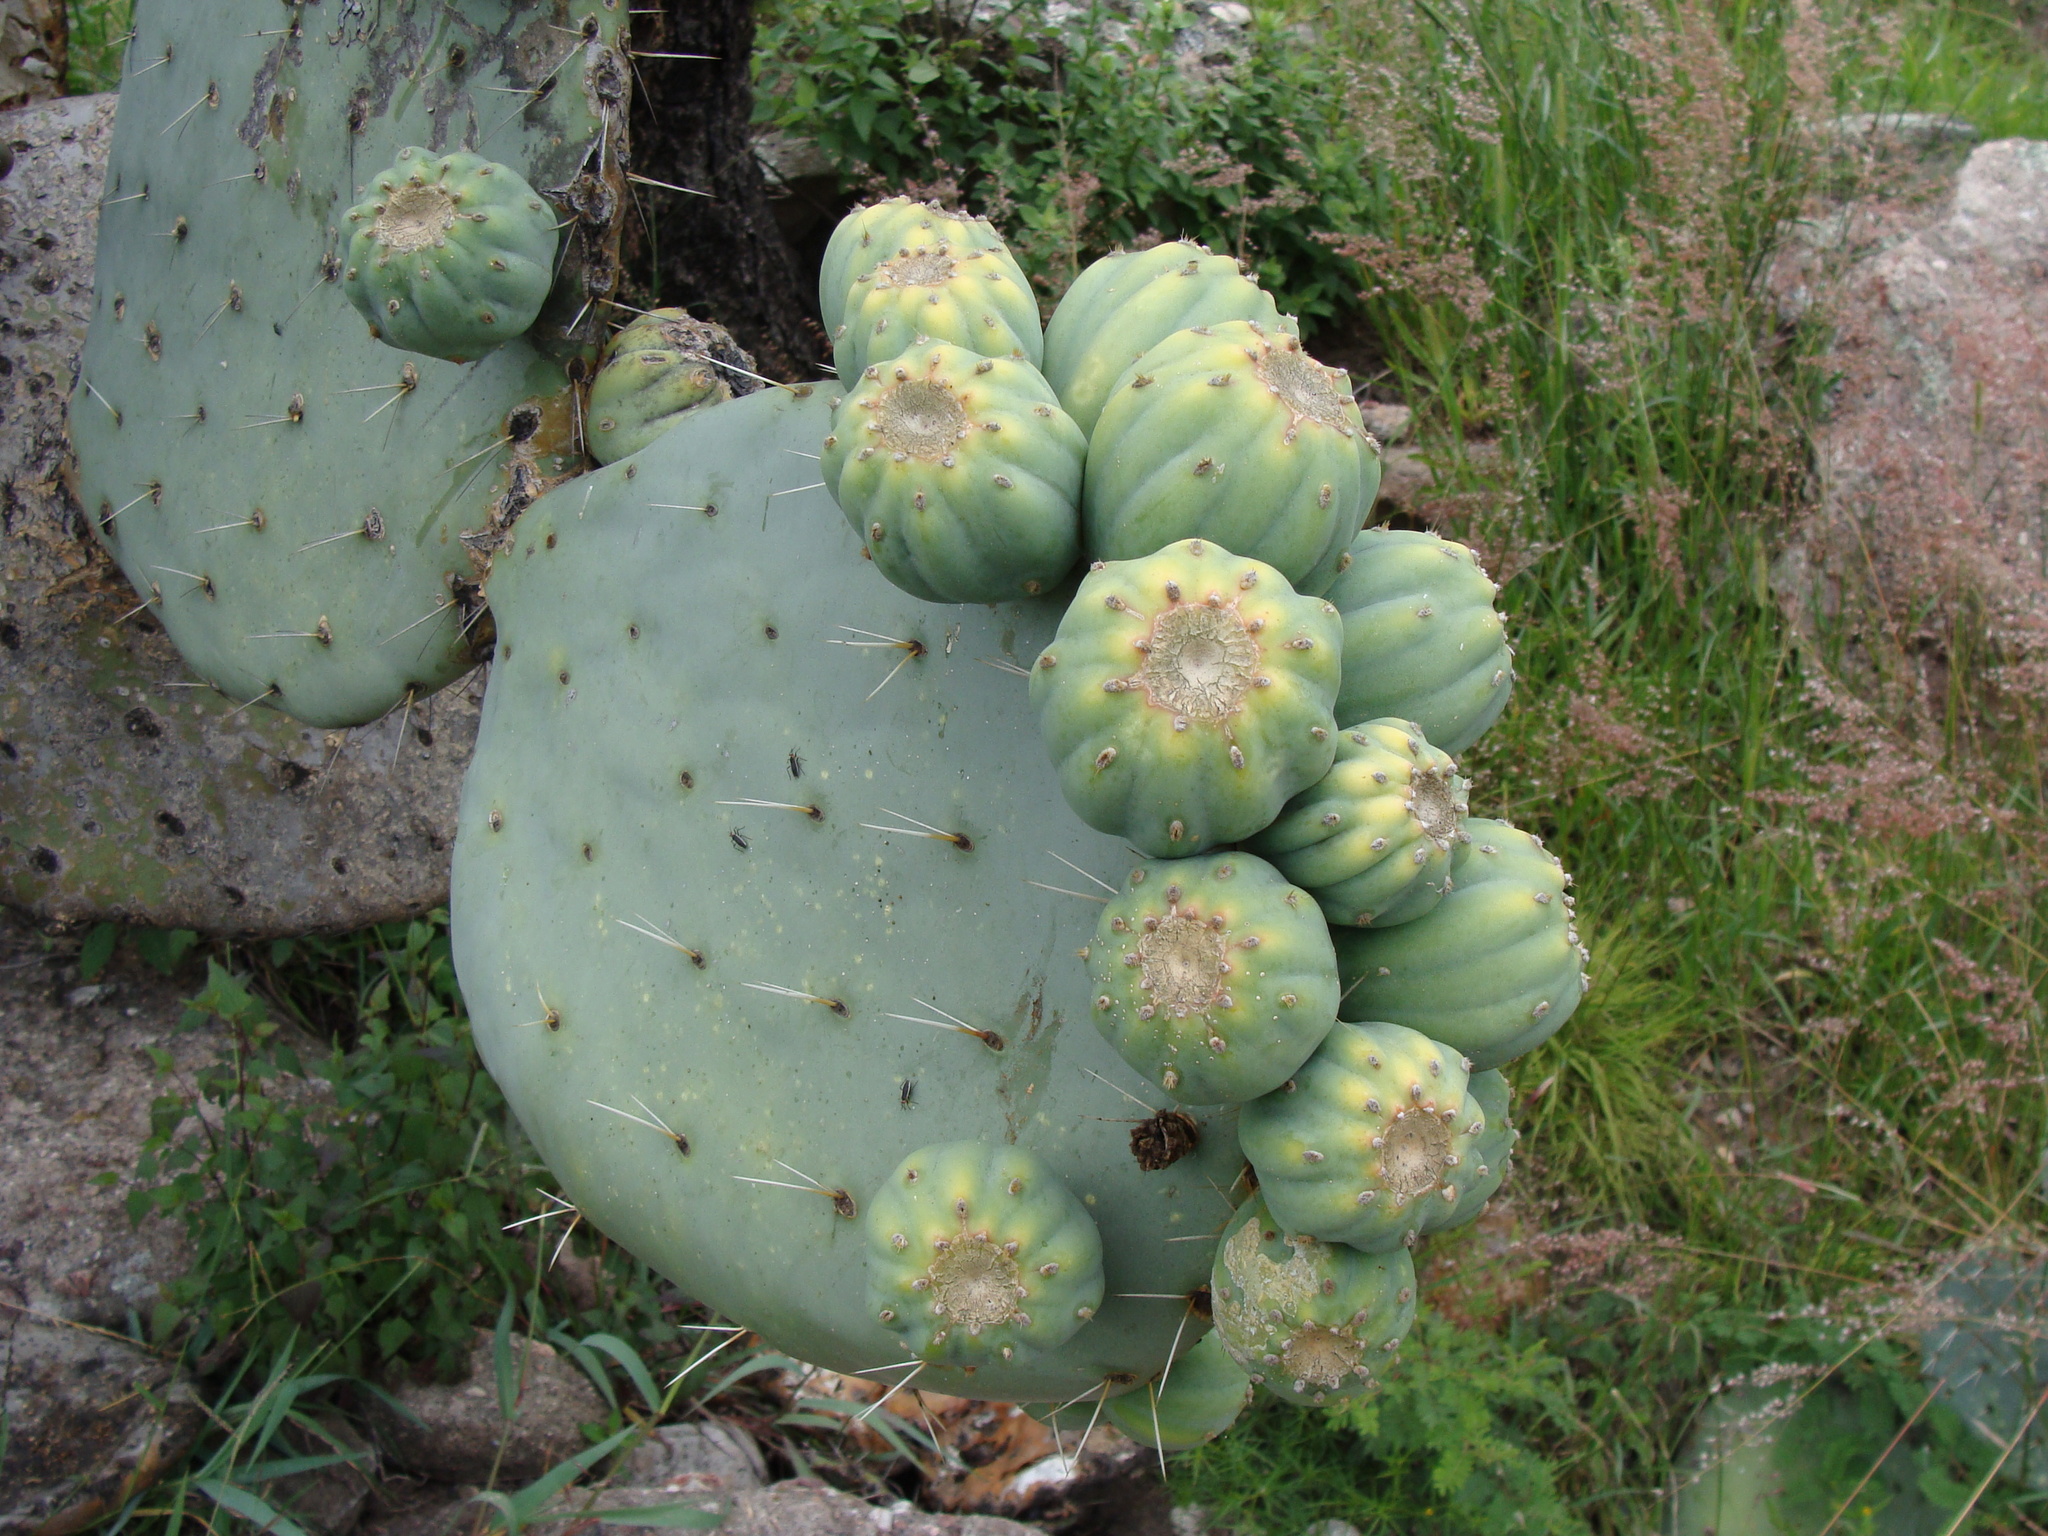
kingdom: Plantae
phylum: Tracheophyta
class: Magnoliopsida
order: Caryophyllales
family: Cactaceae
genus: Opuntia
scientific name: Opuntia robusta
